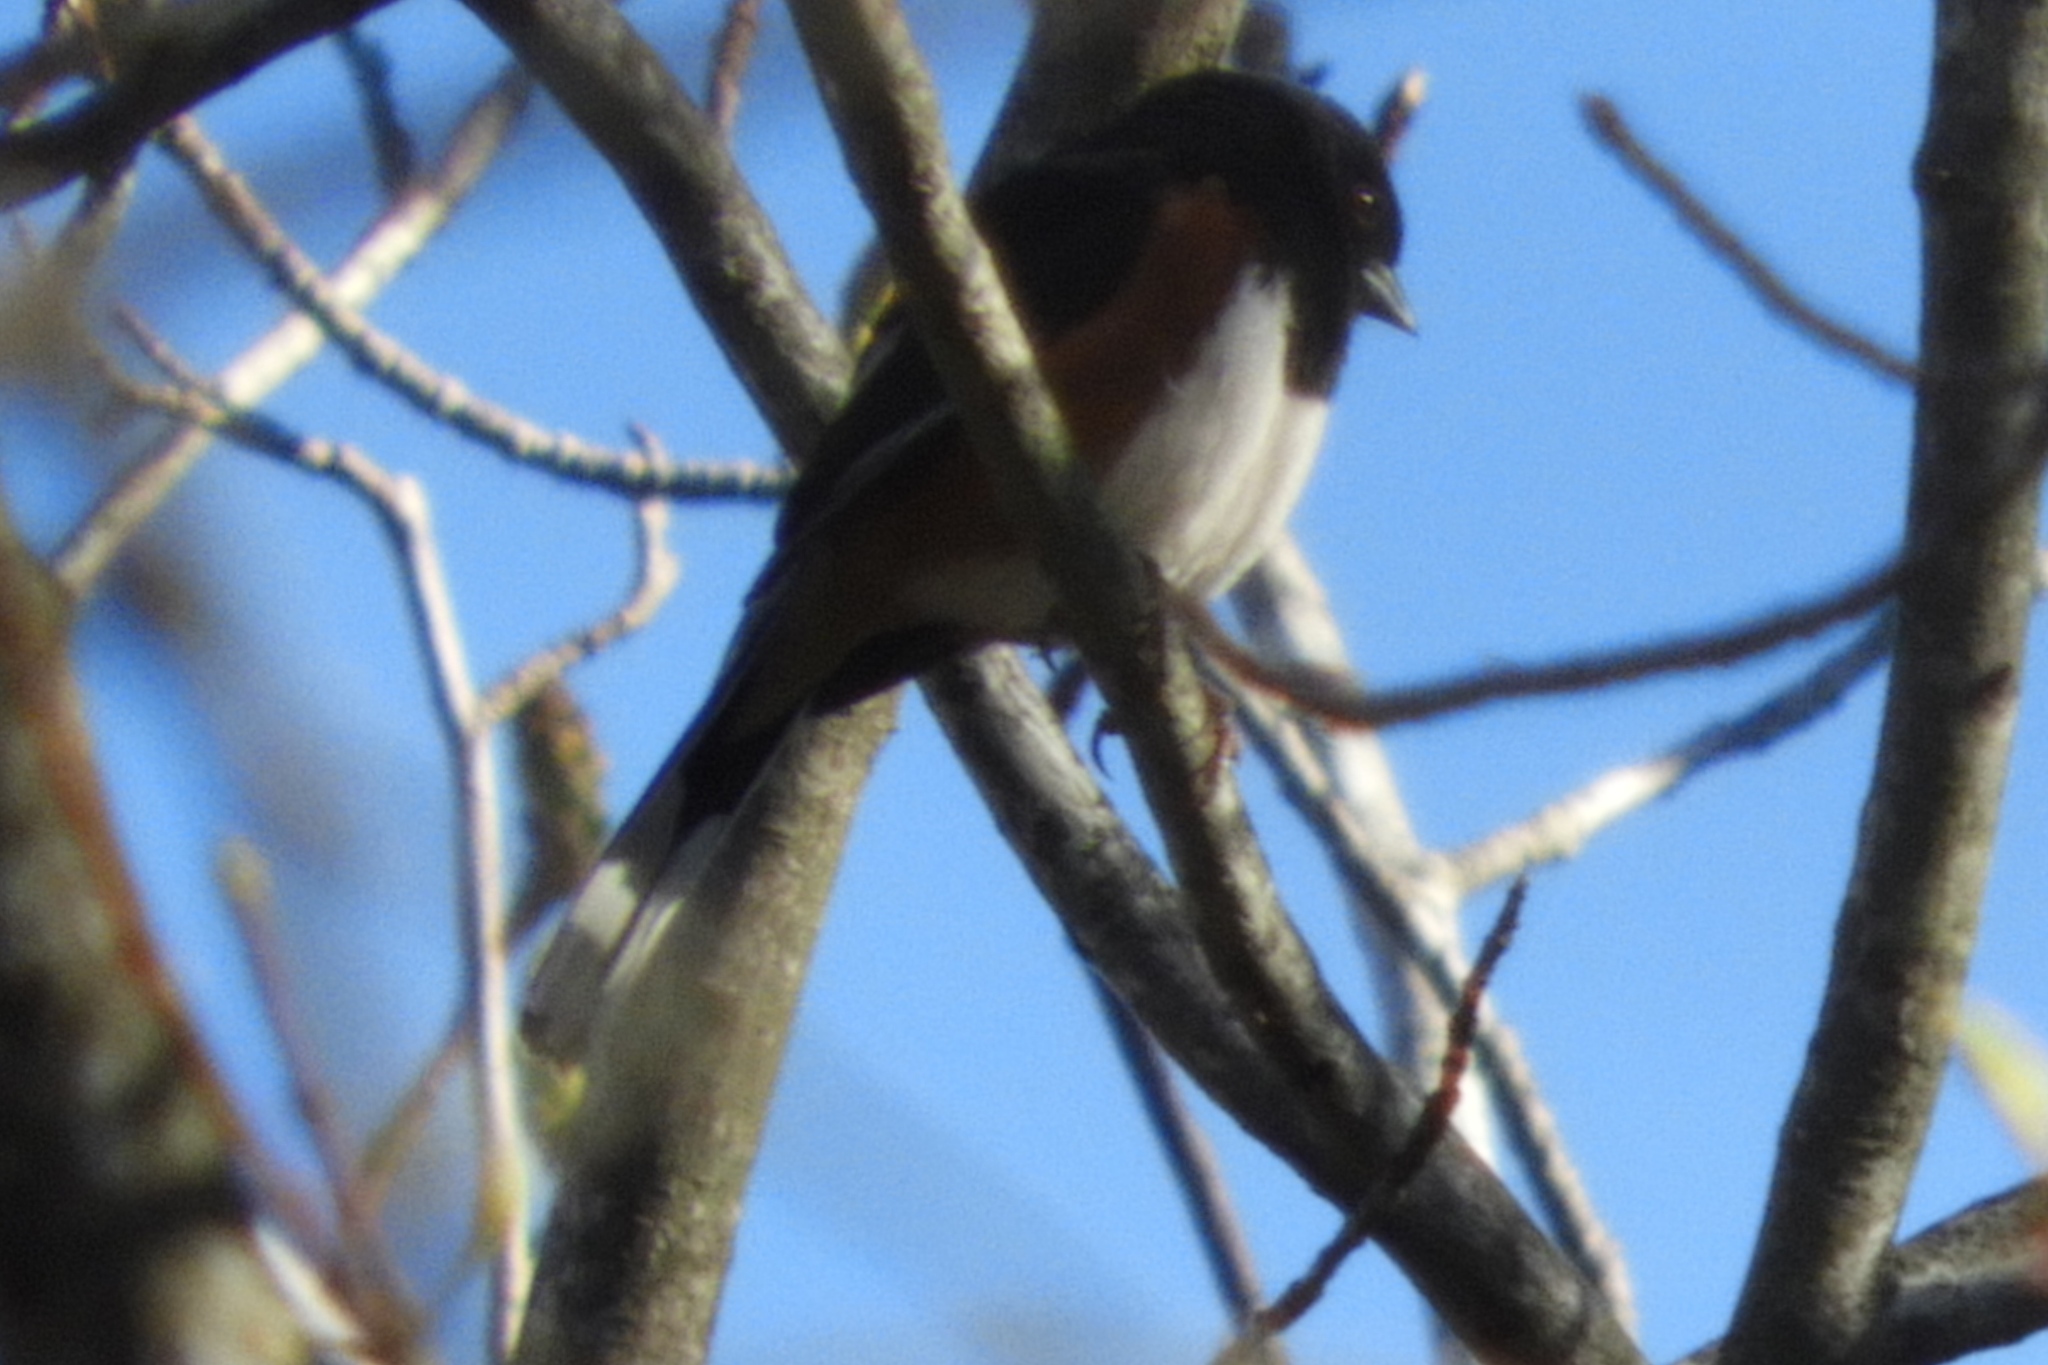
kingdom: Animalia
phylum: Chordata
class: Aves
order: Passeriformes
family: Passerellidae
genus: Pipilo
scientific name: Pipilo erythrophthalmus
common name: Eastern towhee
